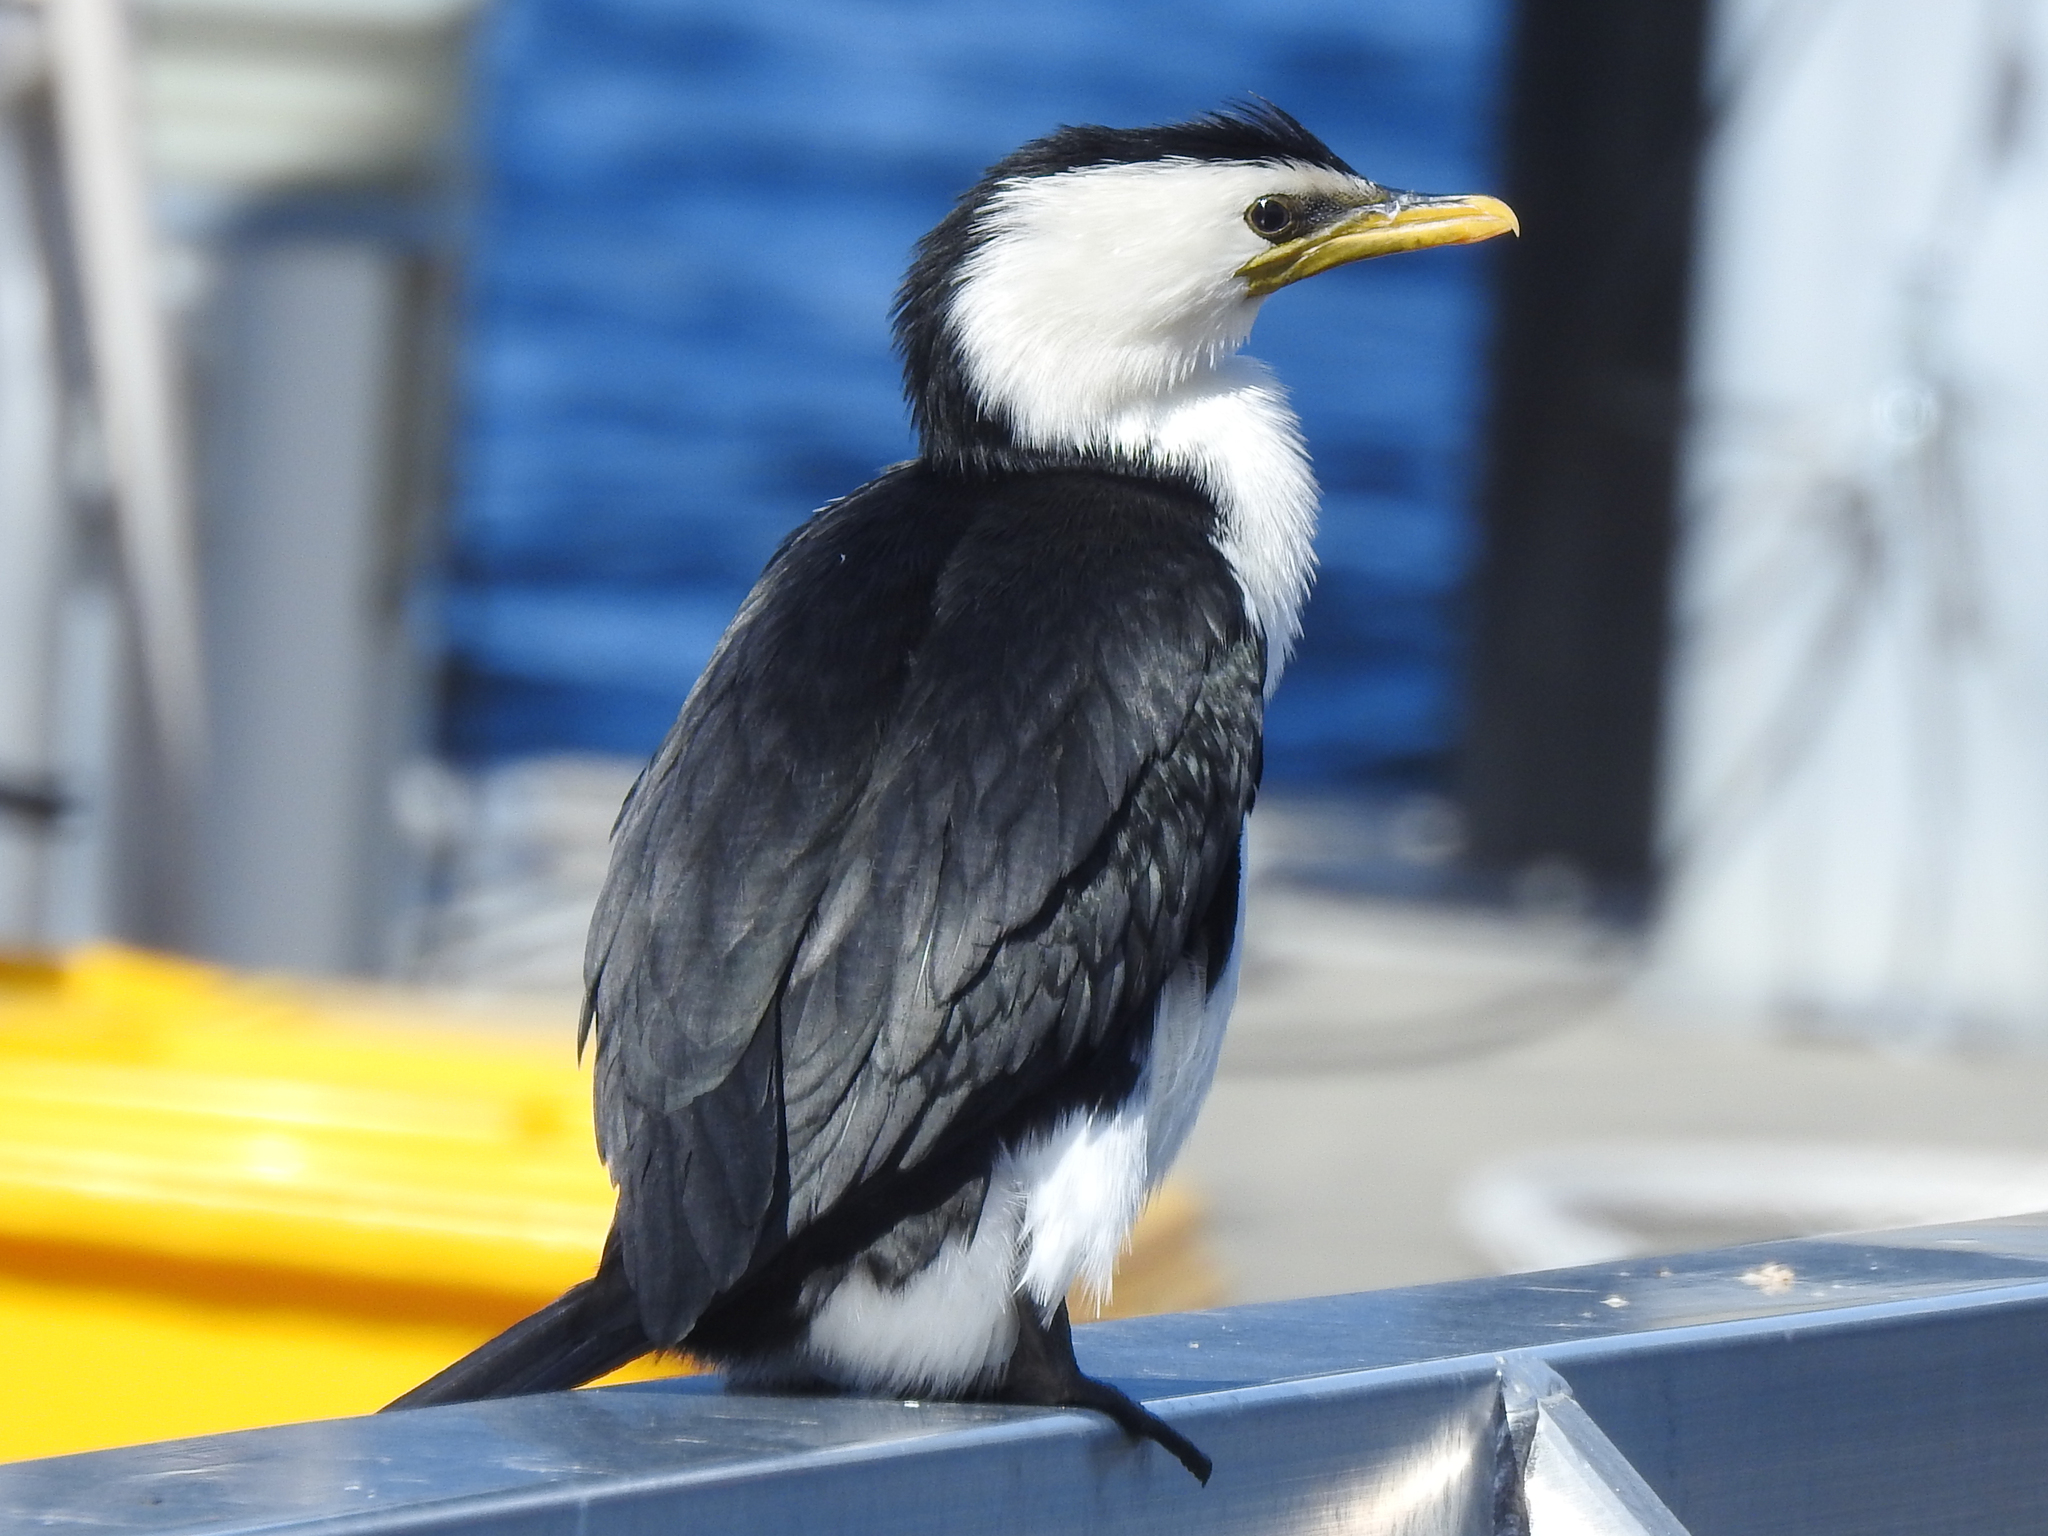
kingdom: Animalia
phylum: Chordata
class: Aves
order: Suliformes
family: Phalacrocoracidae
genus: Microcarbo
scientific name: Microcarbo melanoleucos
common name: Little pied cormorant
